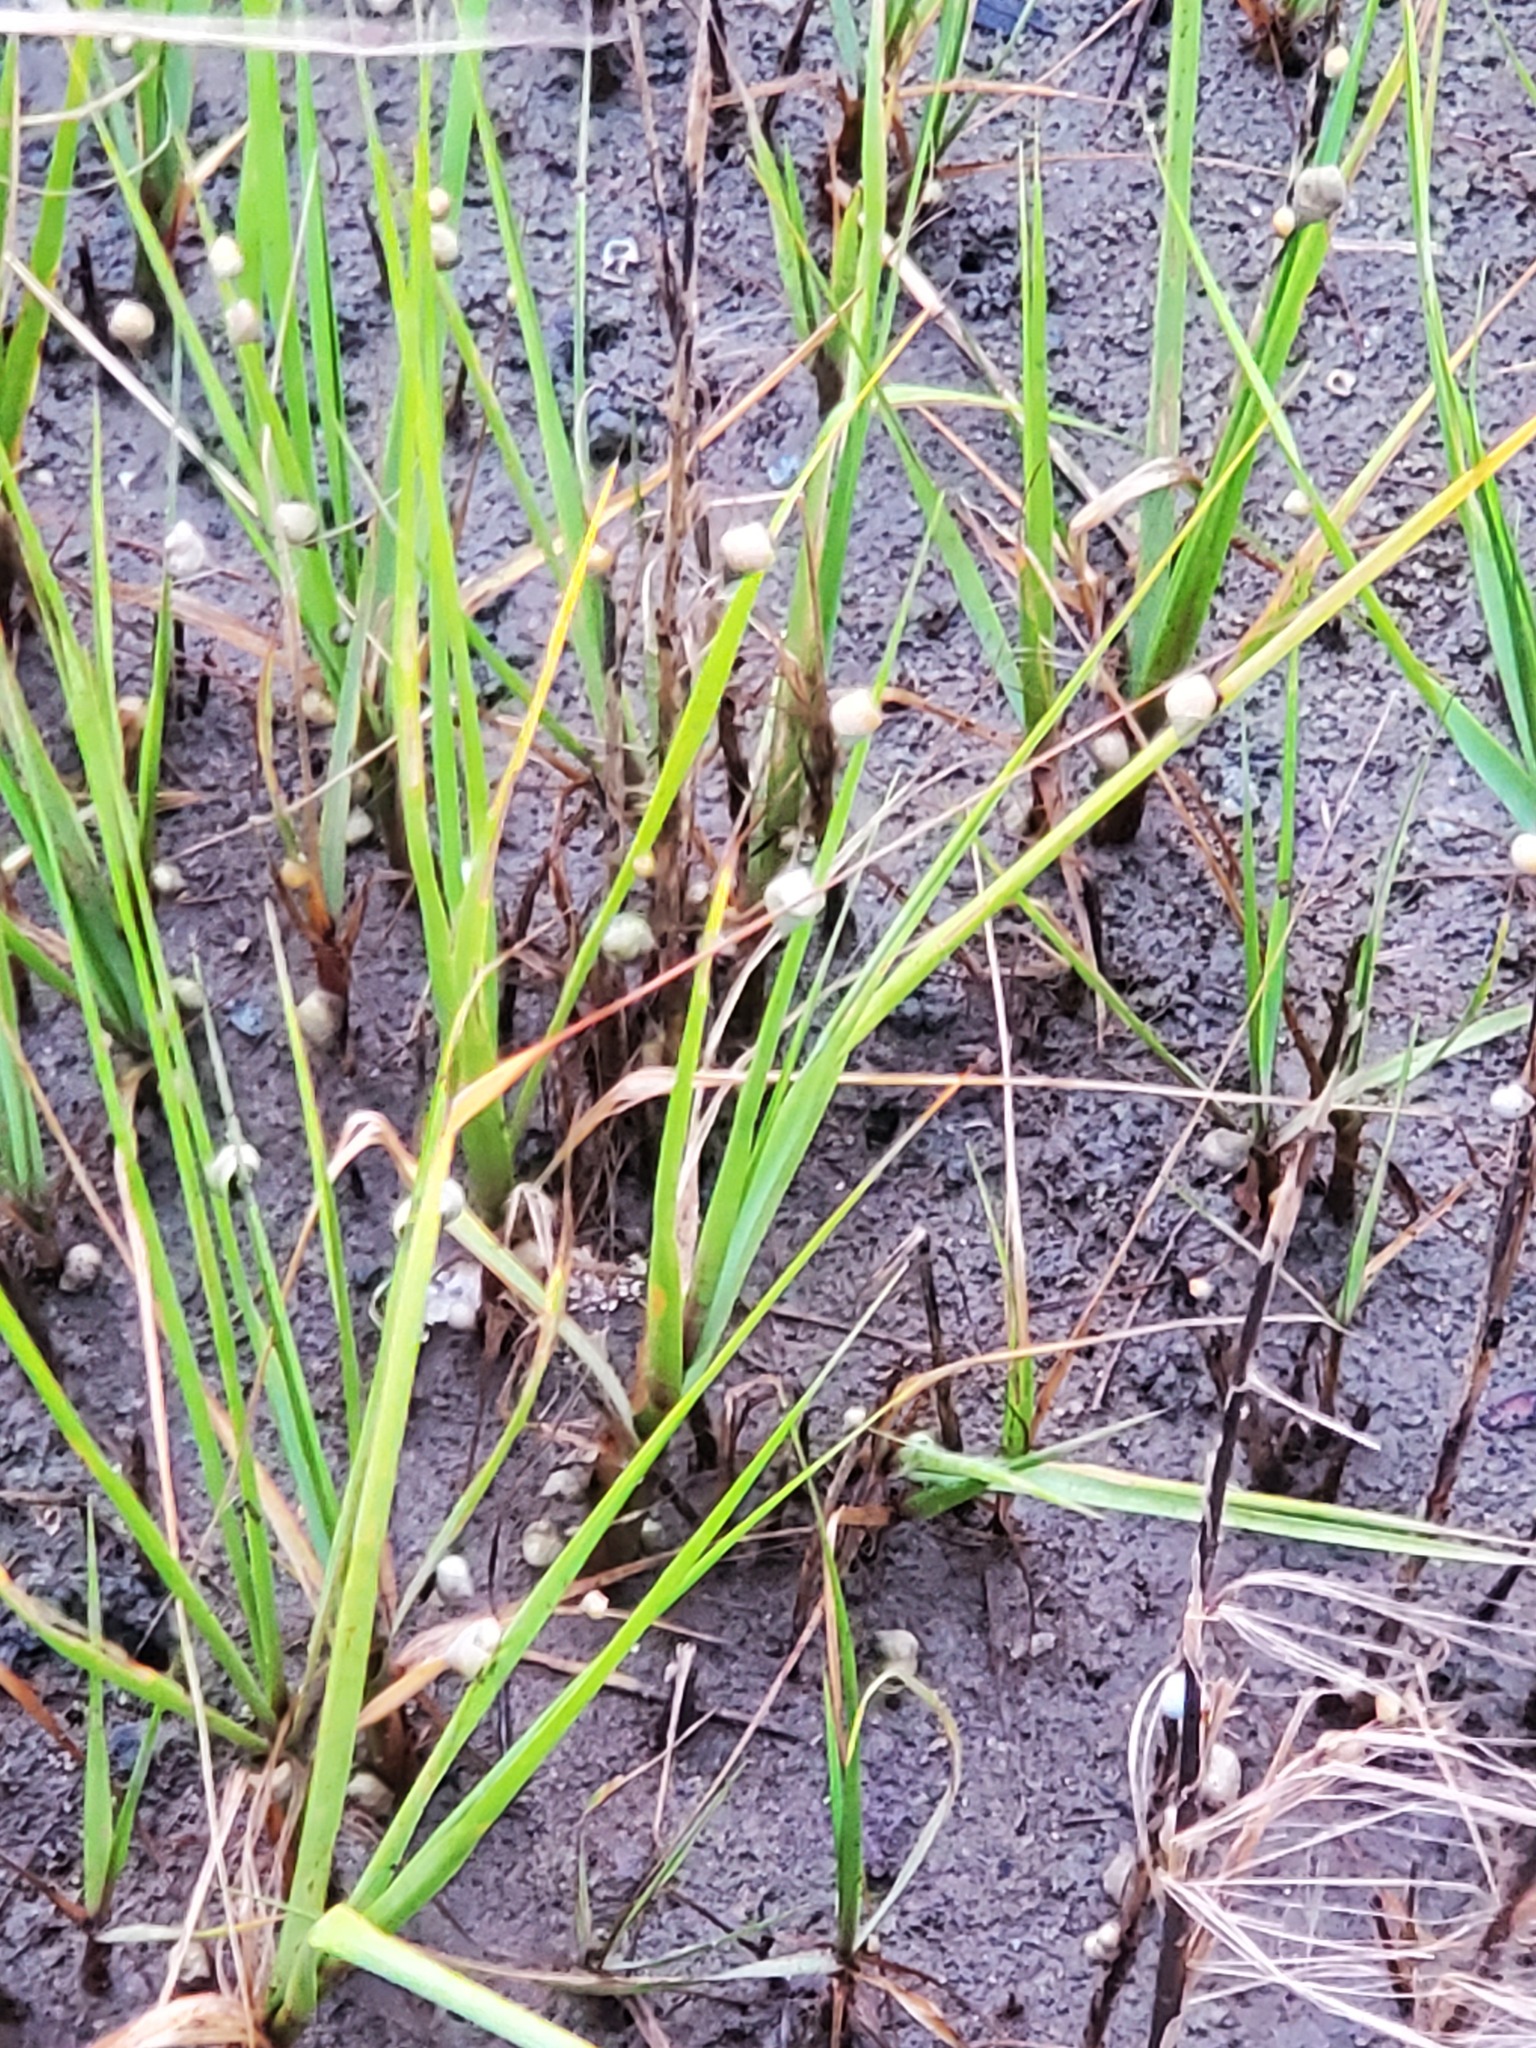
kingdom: Animalia
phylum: Mollusca
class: Gastropoda
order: Littorinimorpha
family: Littorinidae
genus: Littoraria
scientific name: Littoraria irrorata
